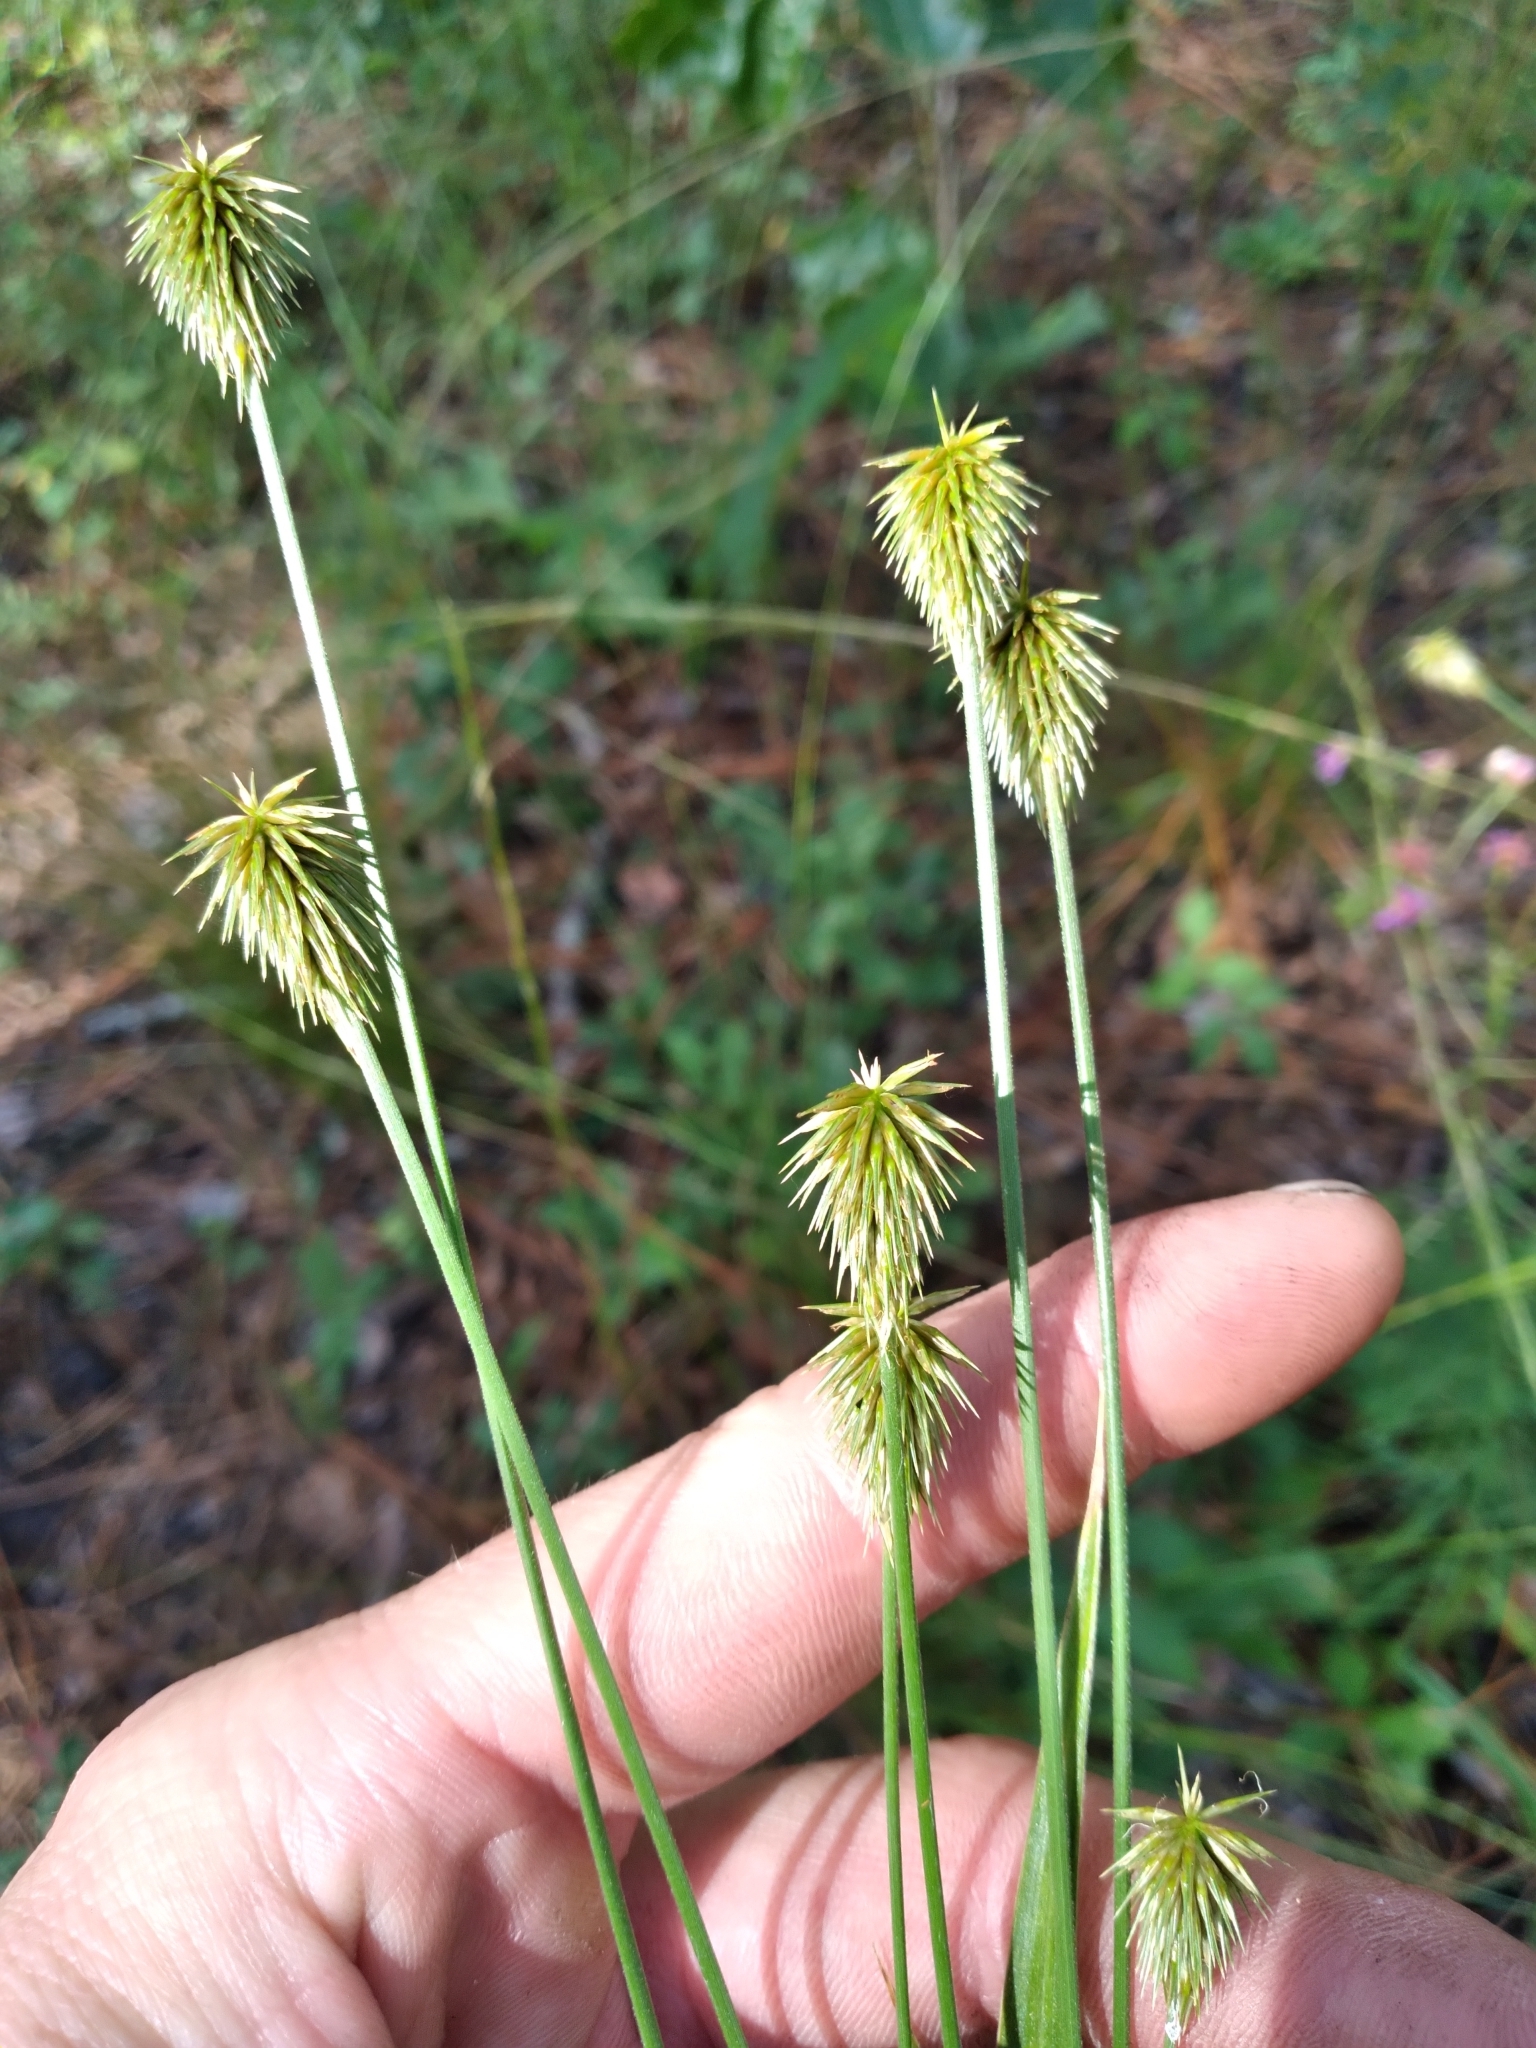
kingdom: Plantae
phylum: Tracheophyta
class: Liliopsida
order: Poales
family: Cyperaceae
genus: Cyperus
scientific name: Cyperus plukenetii
